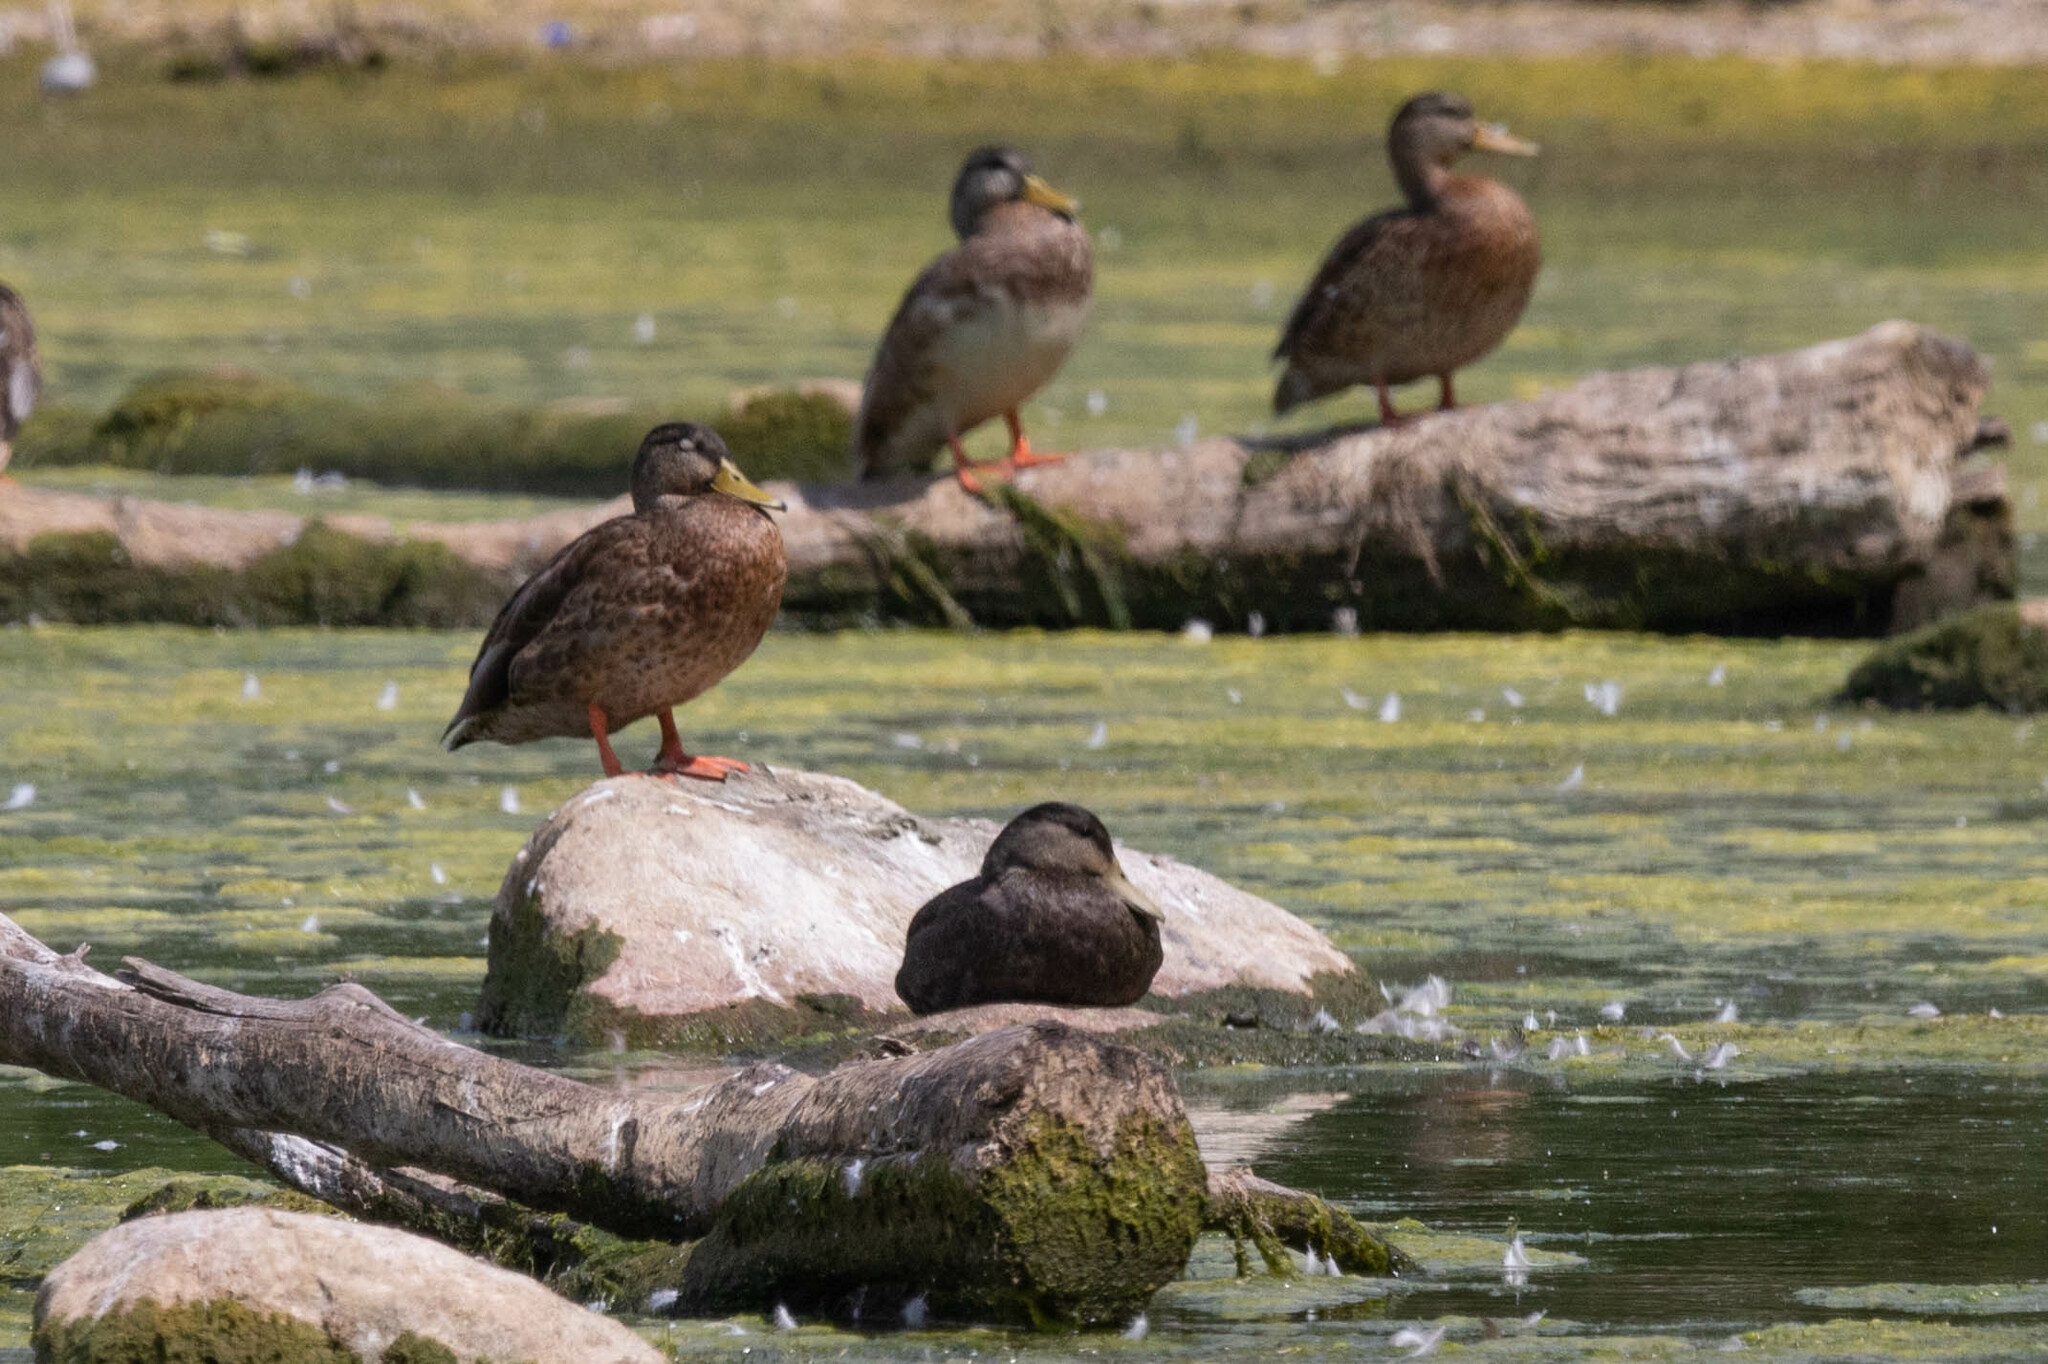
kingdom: Animalia
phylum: Chordata
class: Aves
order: Anseriformes
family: Anatidae
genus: Anas
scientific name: Anas rubripes
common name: American black duck
